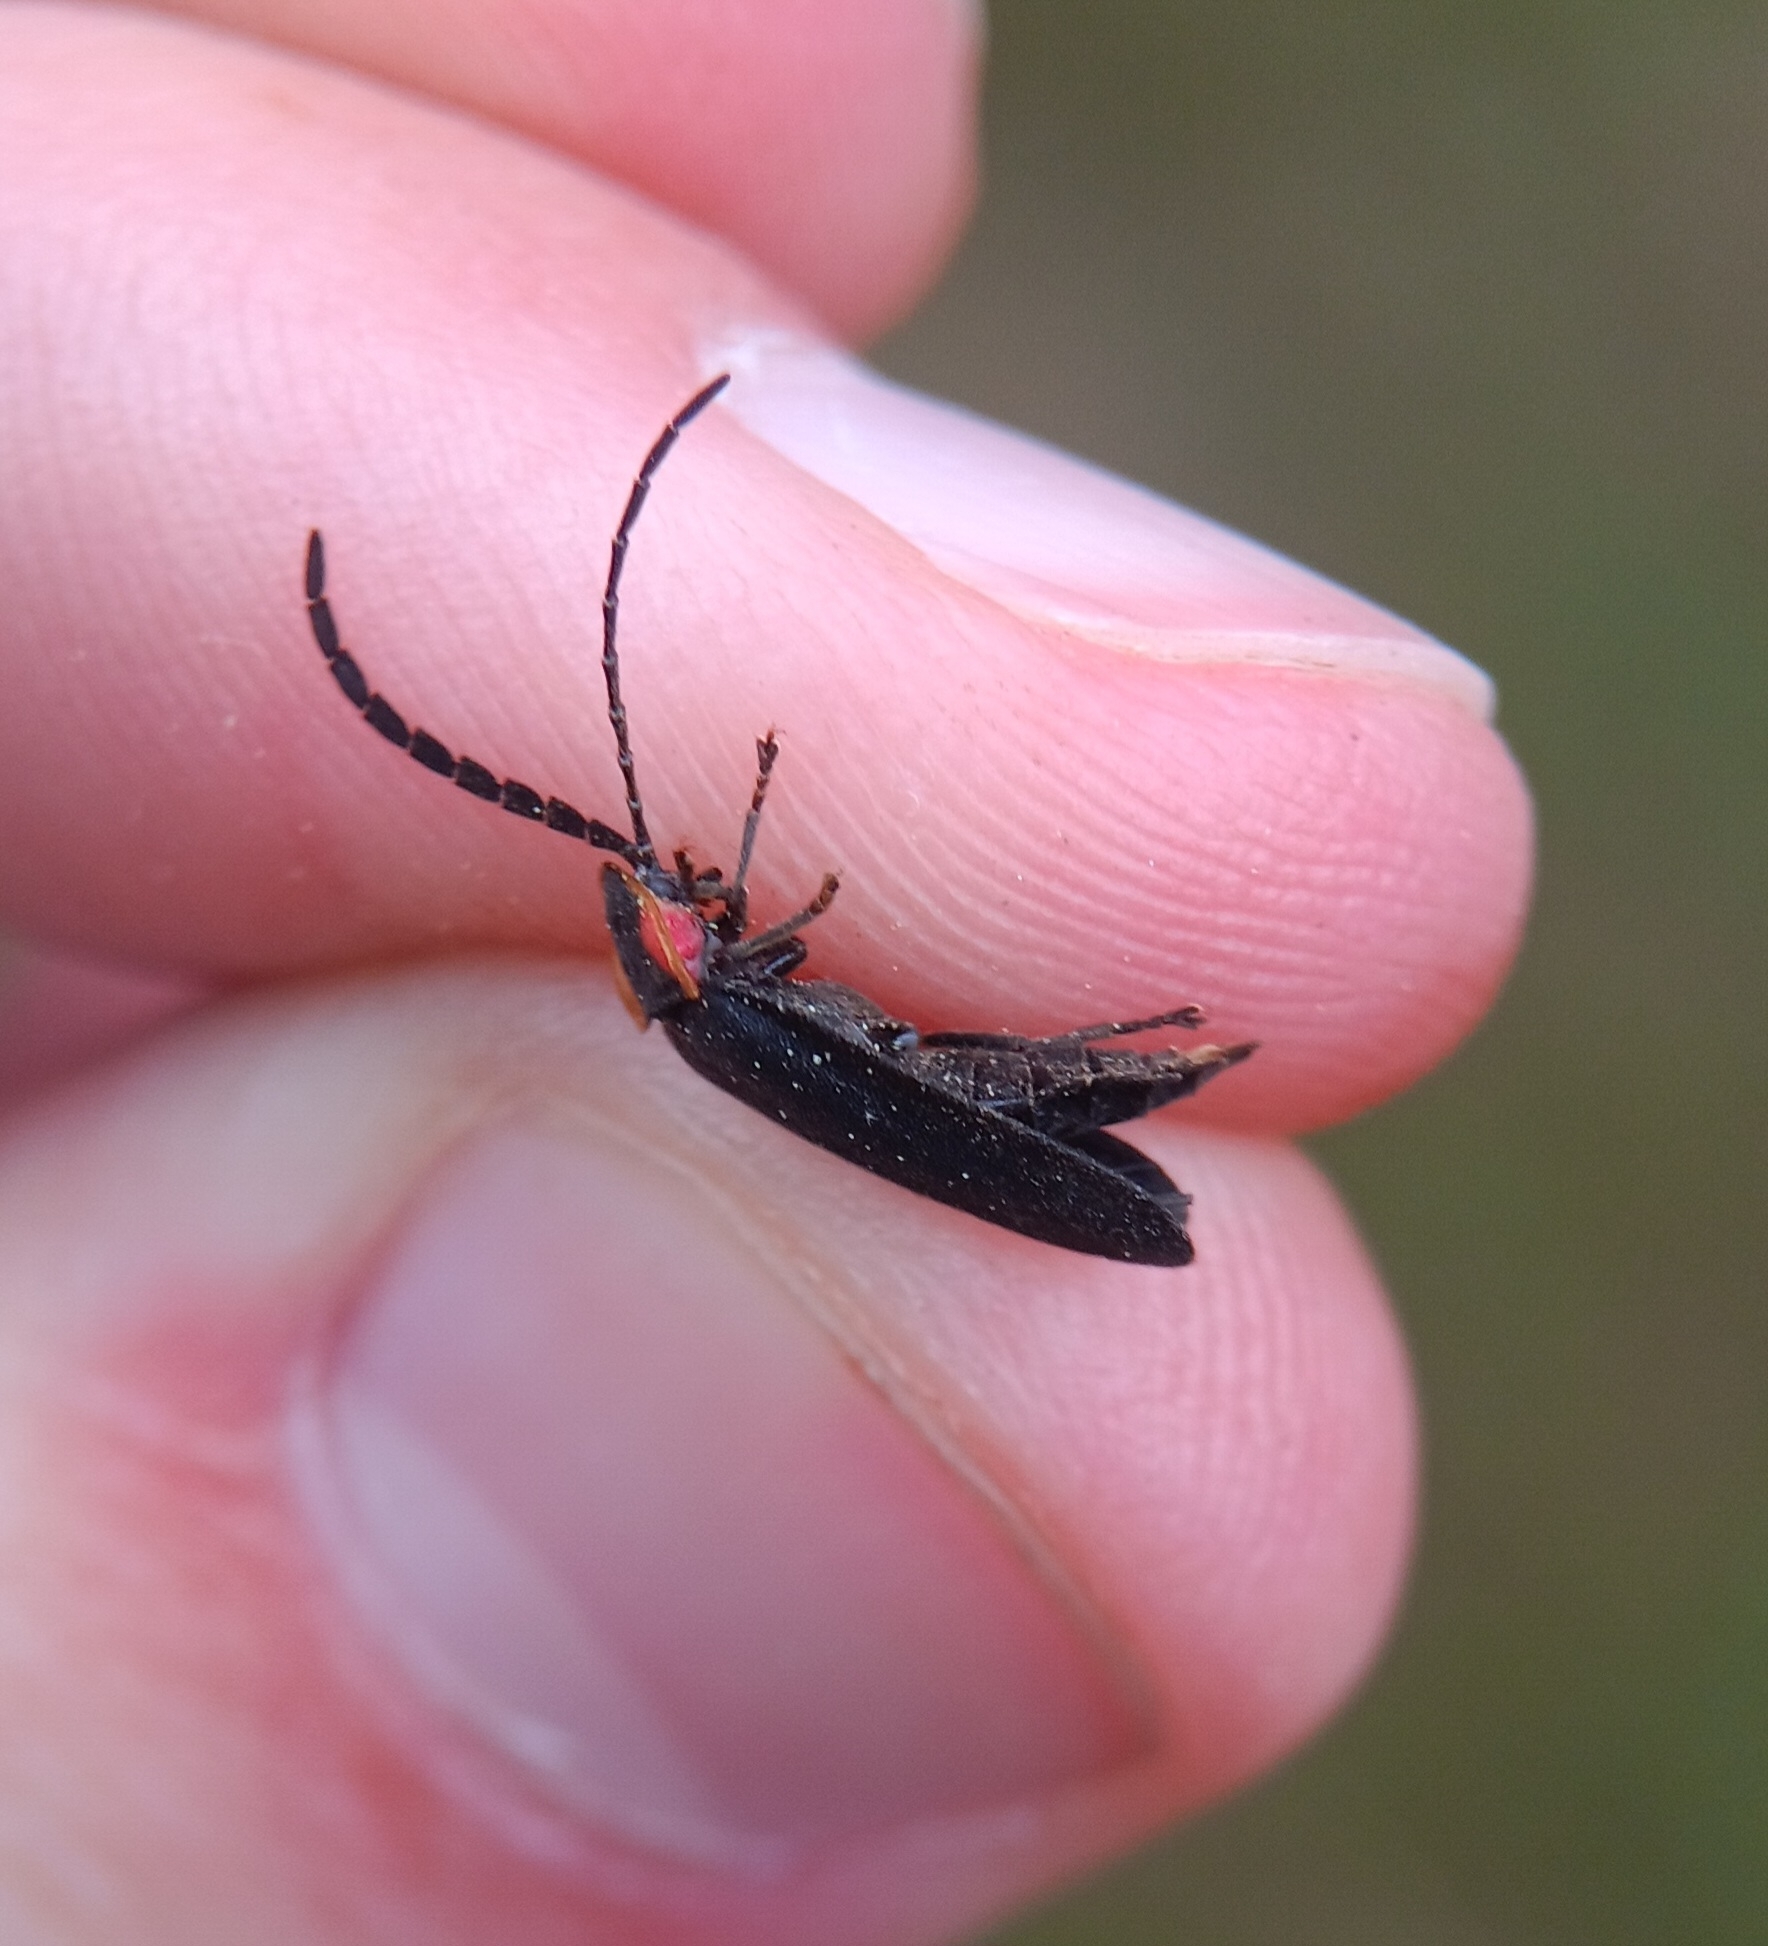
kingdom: Animalia
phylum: Arthropoda
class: Insecta
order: Coleoptera
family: Lampyridae
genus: Lucidota
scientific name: Lucidota atra
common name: Black firefly
